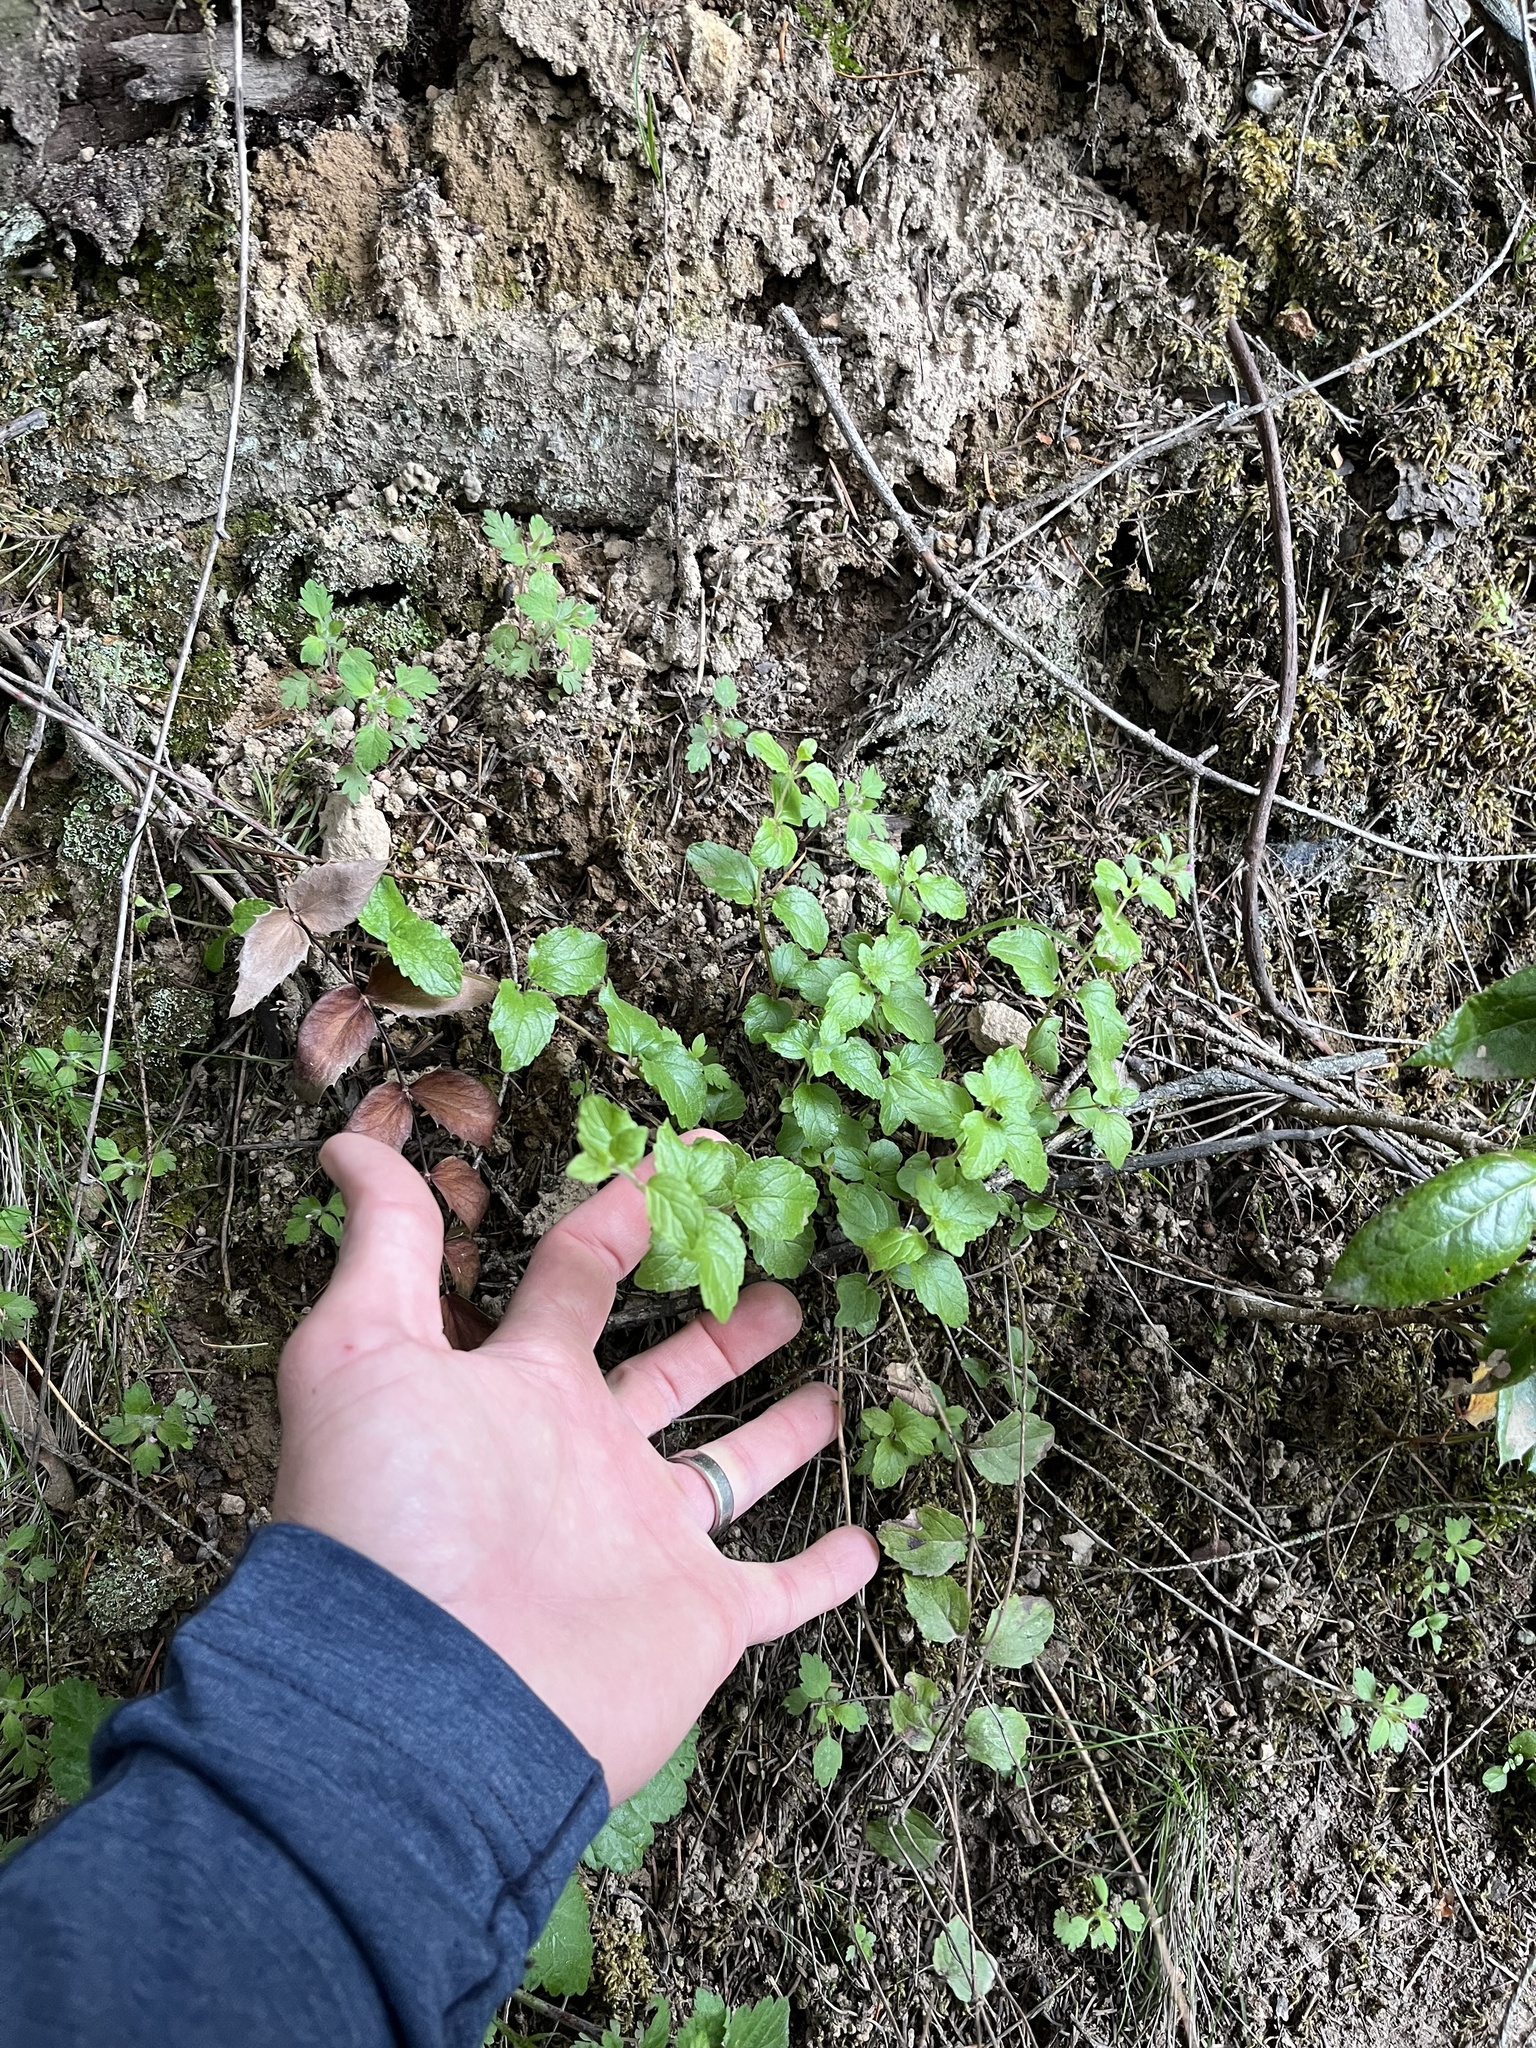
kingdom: Plantae
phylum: Tracheophyta
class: Magnoliopsida
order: Lamiales
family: Lamiaceae
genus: Micromeria
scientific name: Micromeria douglasii
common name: Yerba buena
